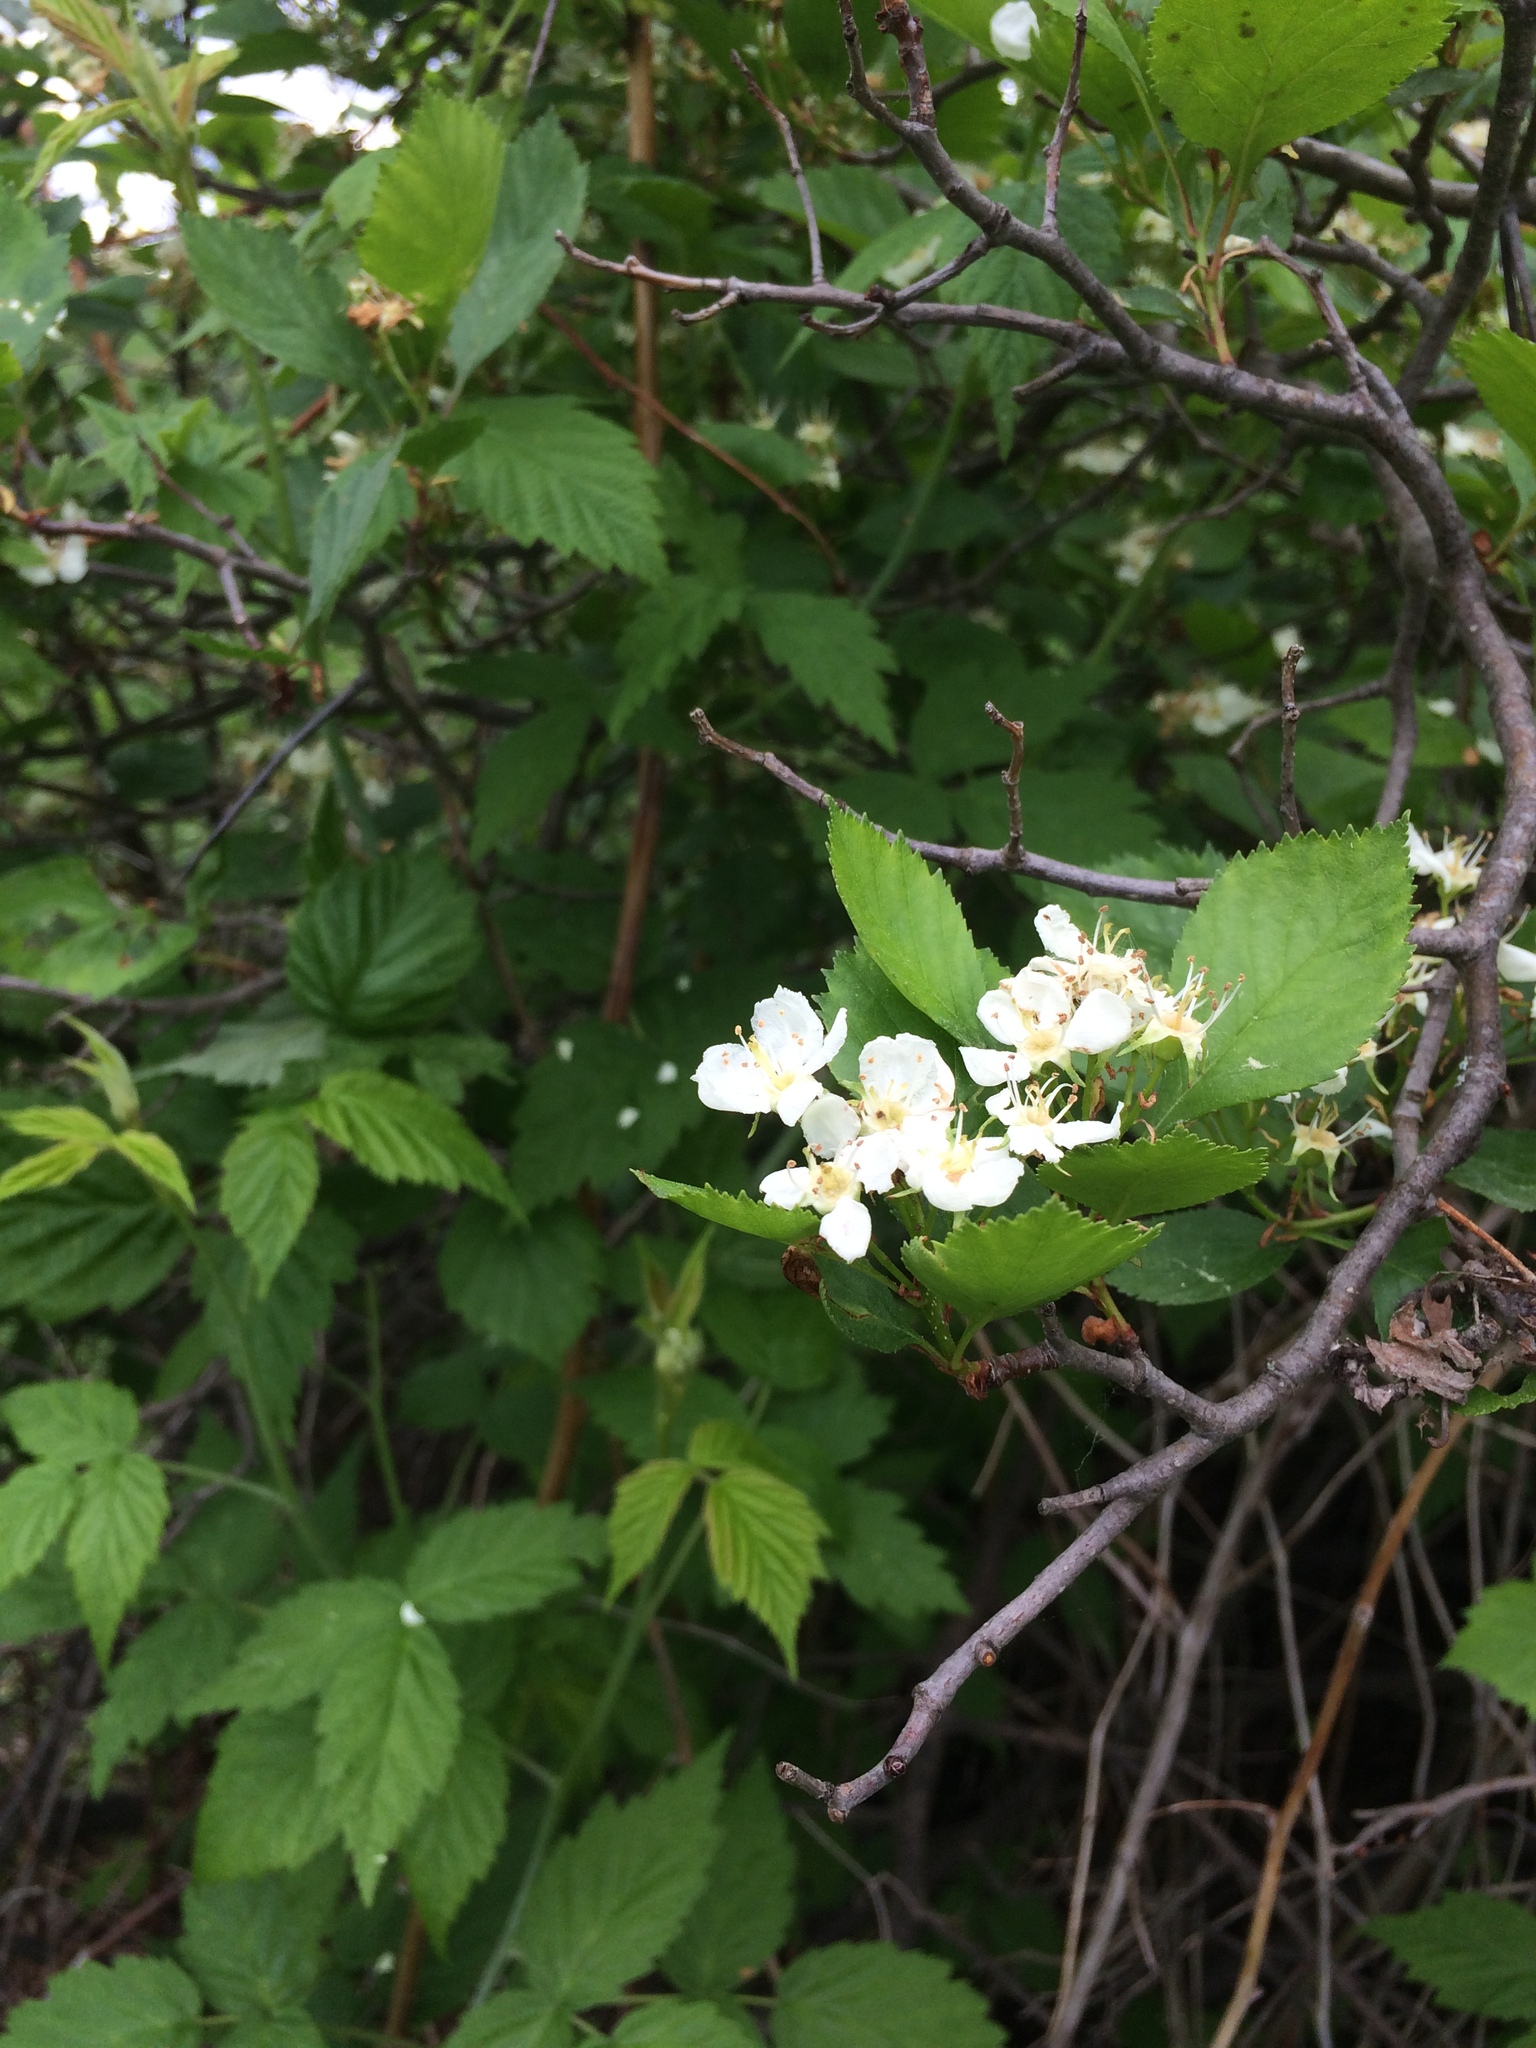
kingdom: Plantae
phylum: Tracheophyta
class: Magnoliopsida
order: Rosales
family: Rosaceae
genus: Crataegus
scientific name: Crataegus chrysocarpa
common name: Fire-berry hawthorn
